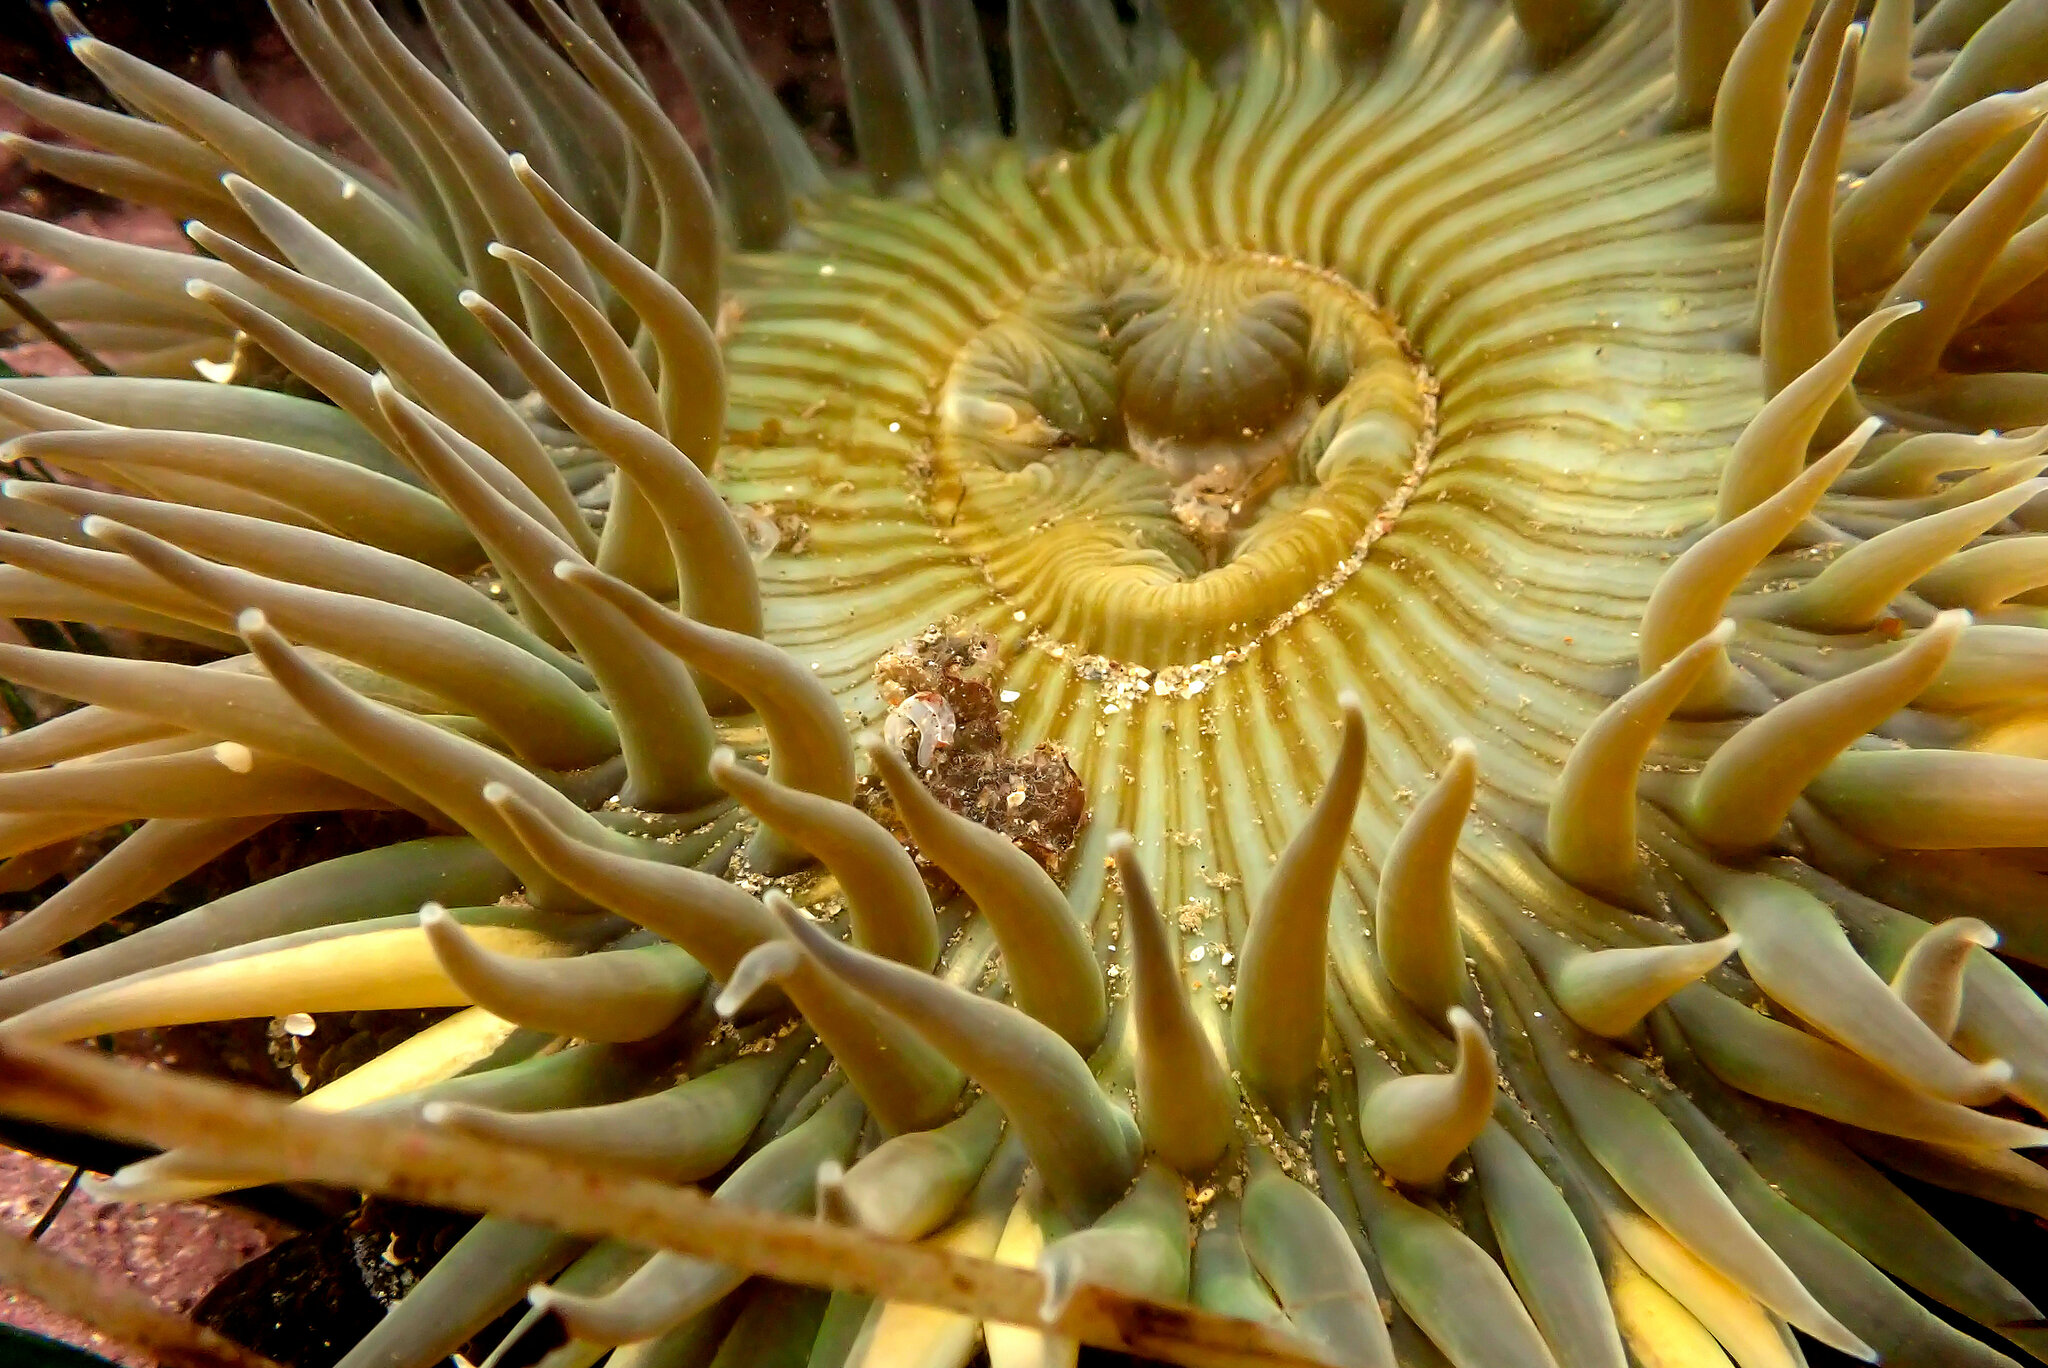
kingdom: Animalia
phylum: Cnidaria
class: Anthozoa
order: Actiniaria
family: Actiniidae
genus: Anthopleura
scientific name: Anthopleura sola
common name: Sun anemone
